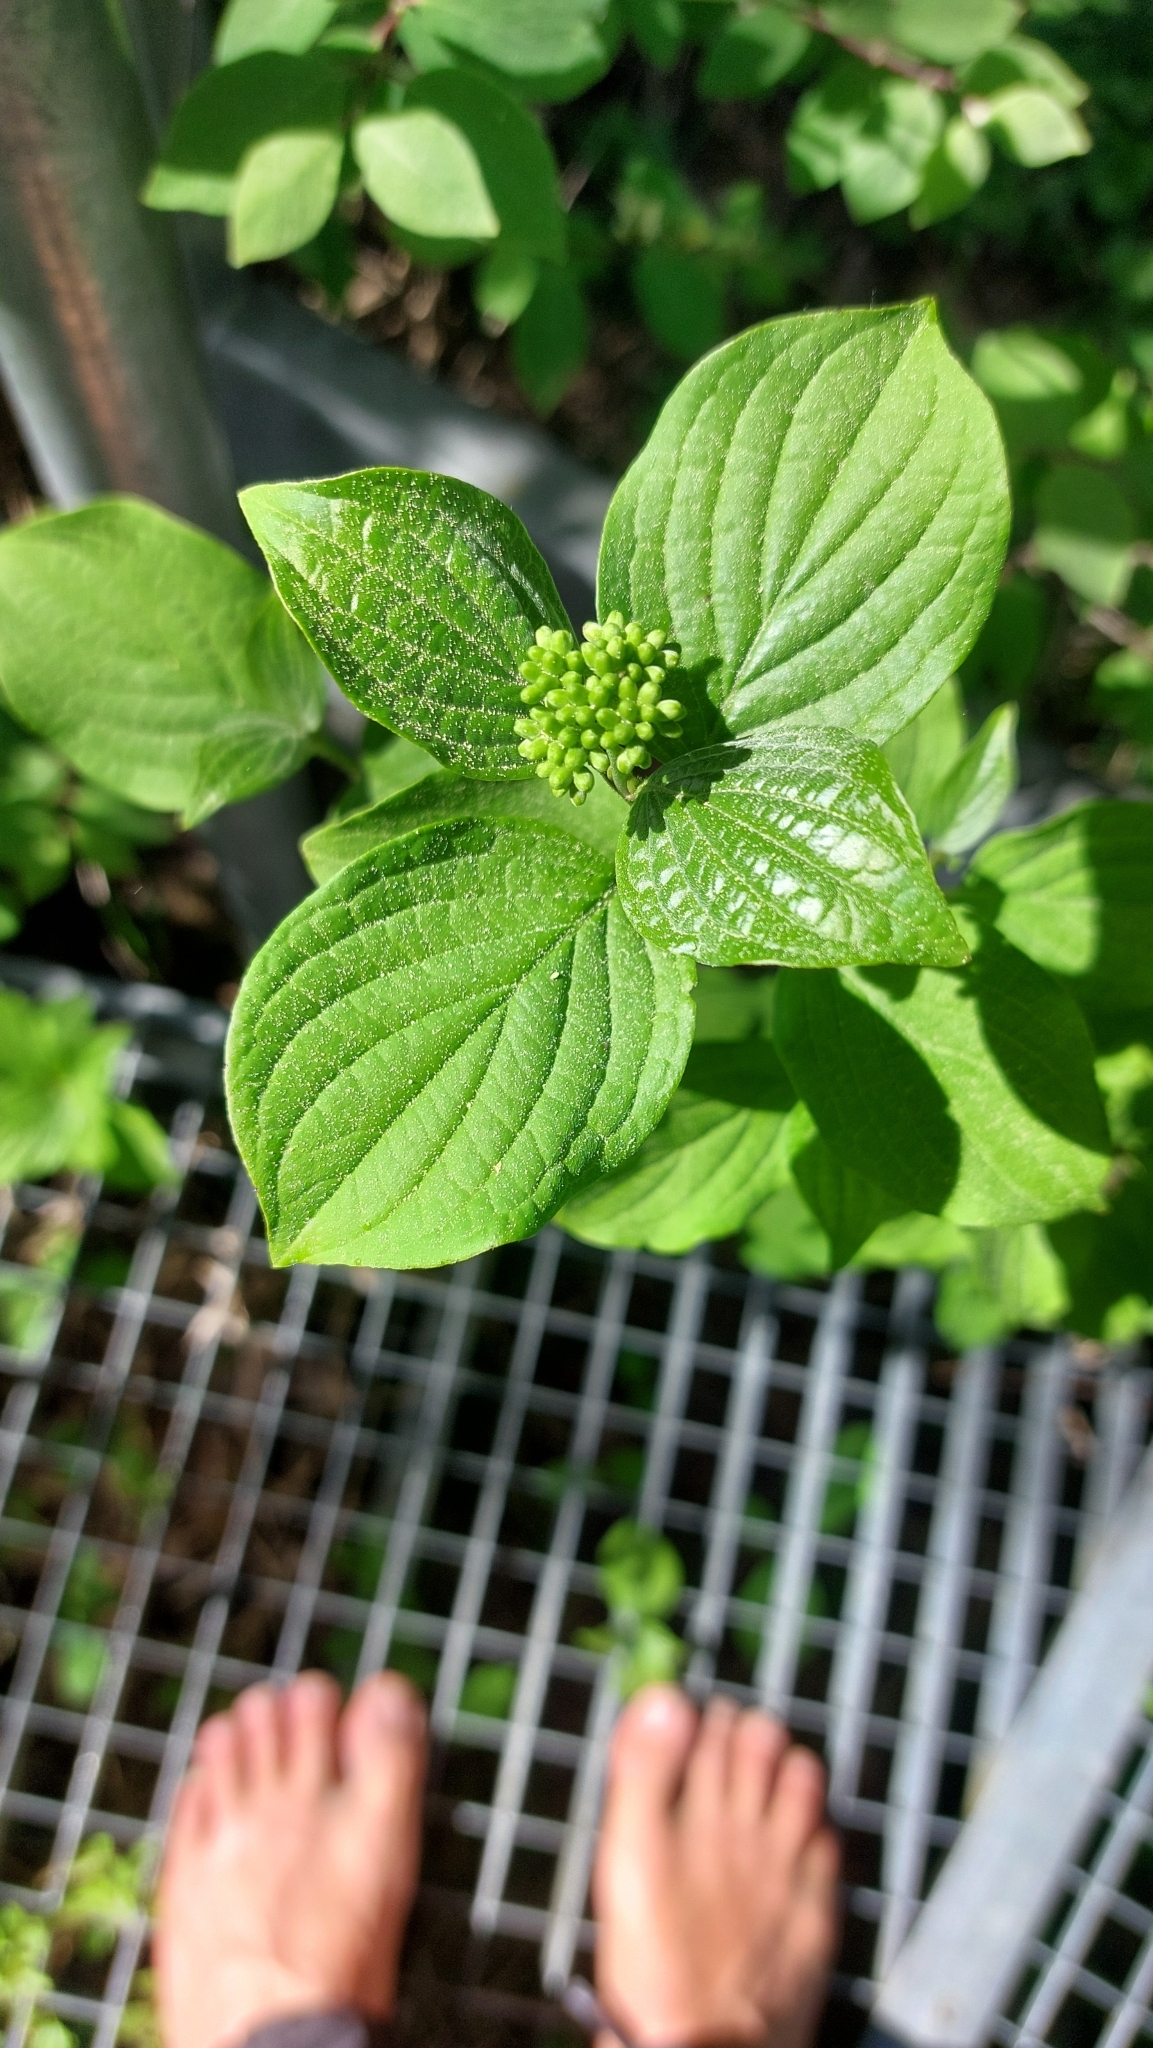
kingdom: Plantae
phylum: Tracheophyta
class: Magnoliopsida
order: Cornales
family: Cornaceae
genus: Cornus
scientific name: Cornus sanguinea
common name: Dogwood
